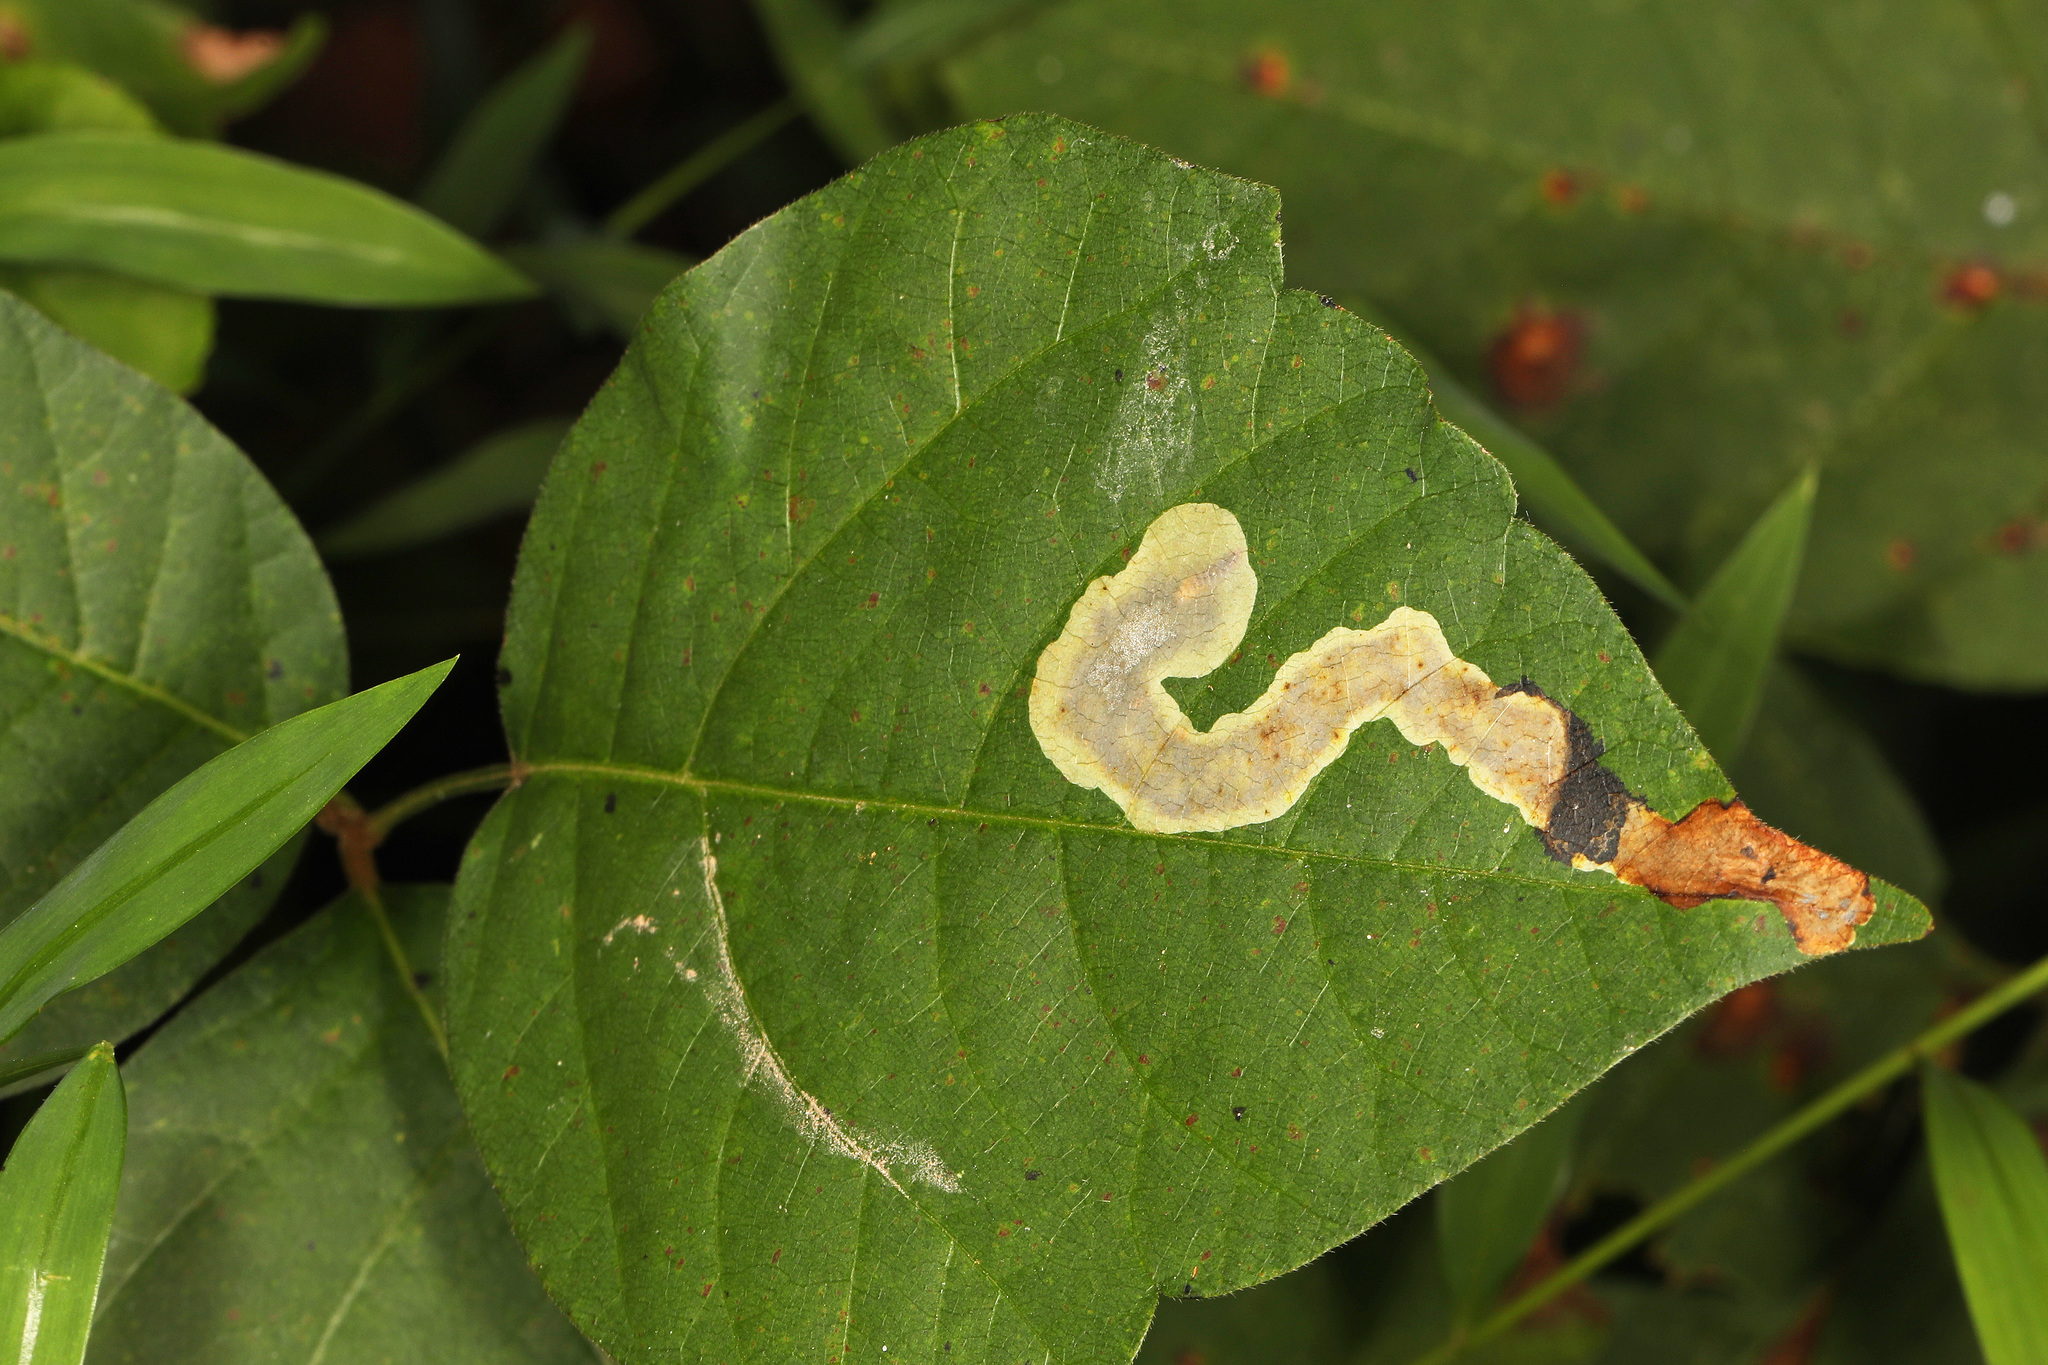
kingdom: Animalia
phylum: Arthropoda
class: Insecta
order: Lepidoptera
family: Gracillariidae
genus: Cameraria
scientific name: Cameraria guttifinitella
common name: Poison ivy leaf-miner moth
